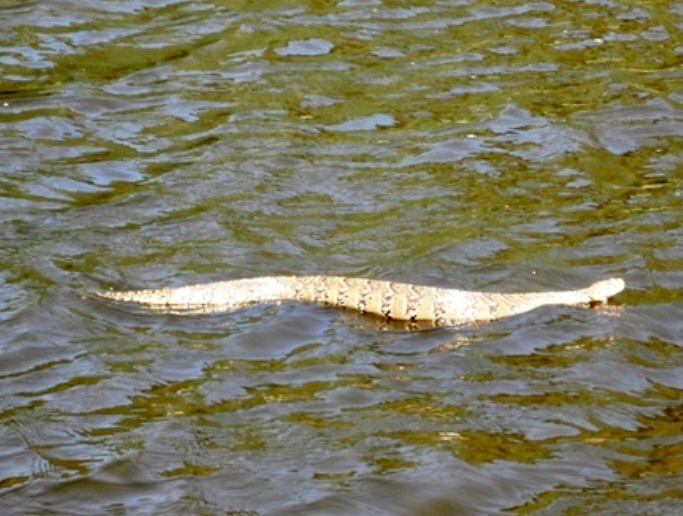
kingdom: Animalia
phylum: Chordata
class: Squamata
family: Viperidae
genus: Bitis
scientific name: Bitis arietans
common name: Puff adder
